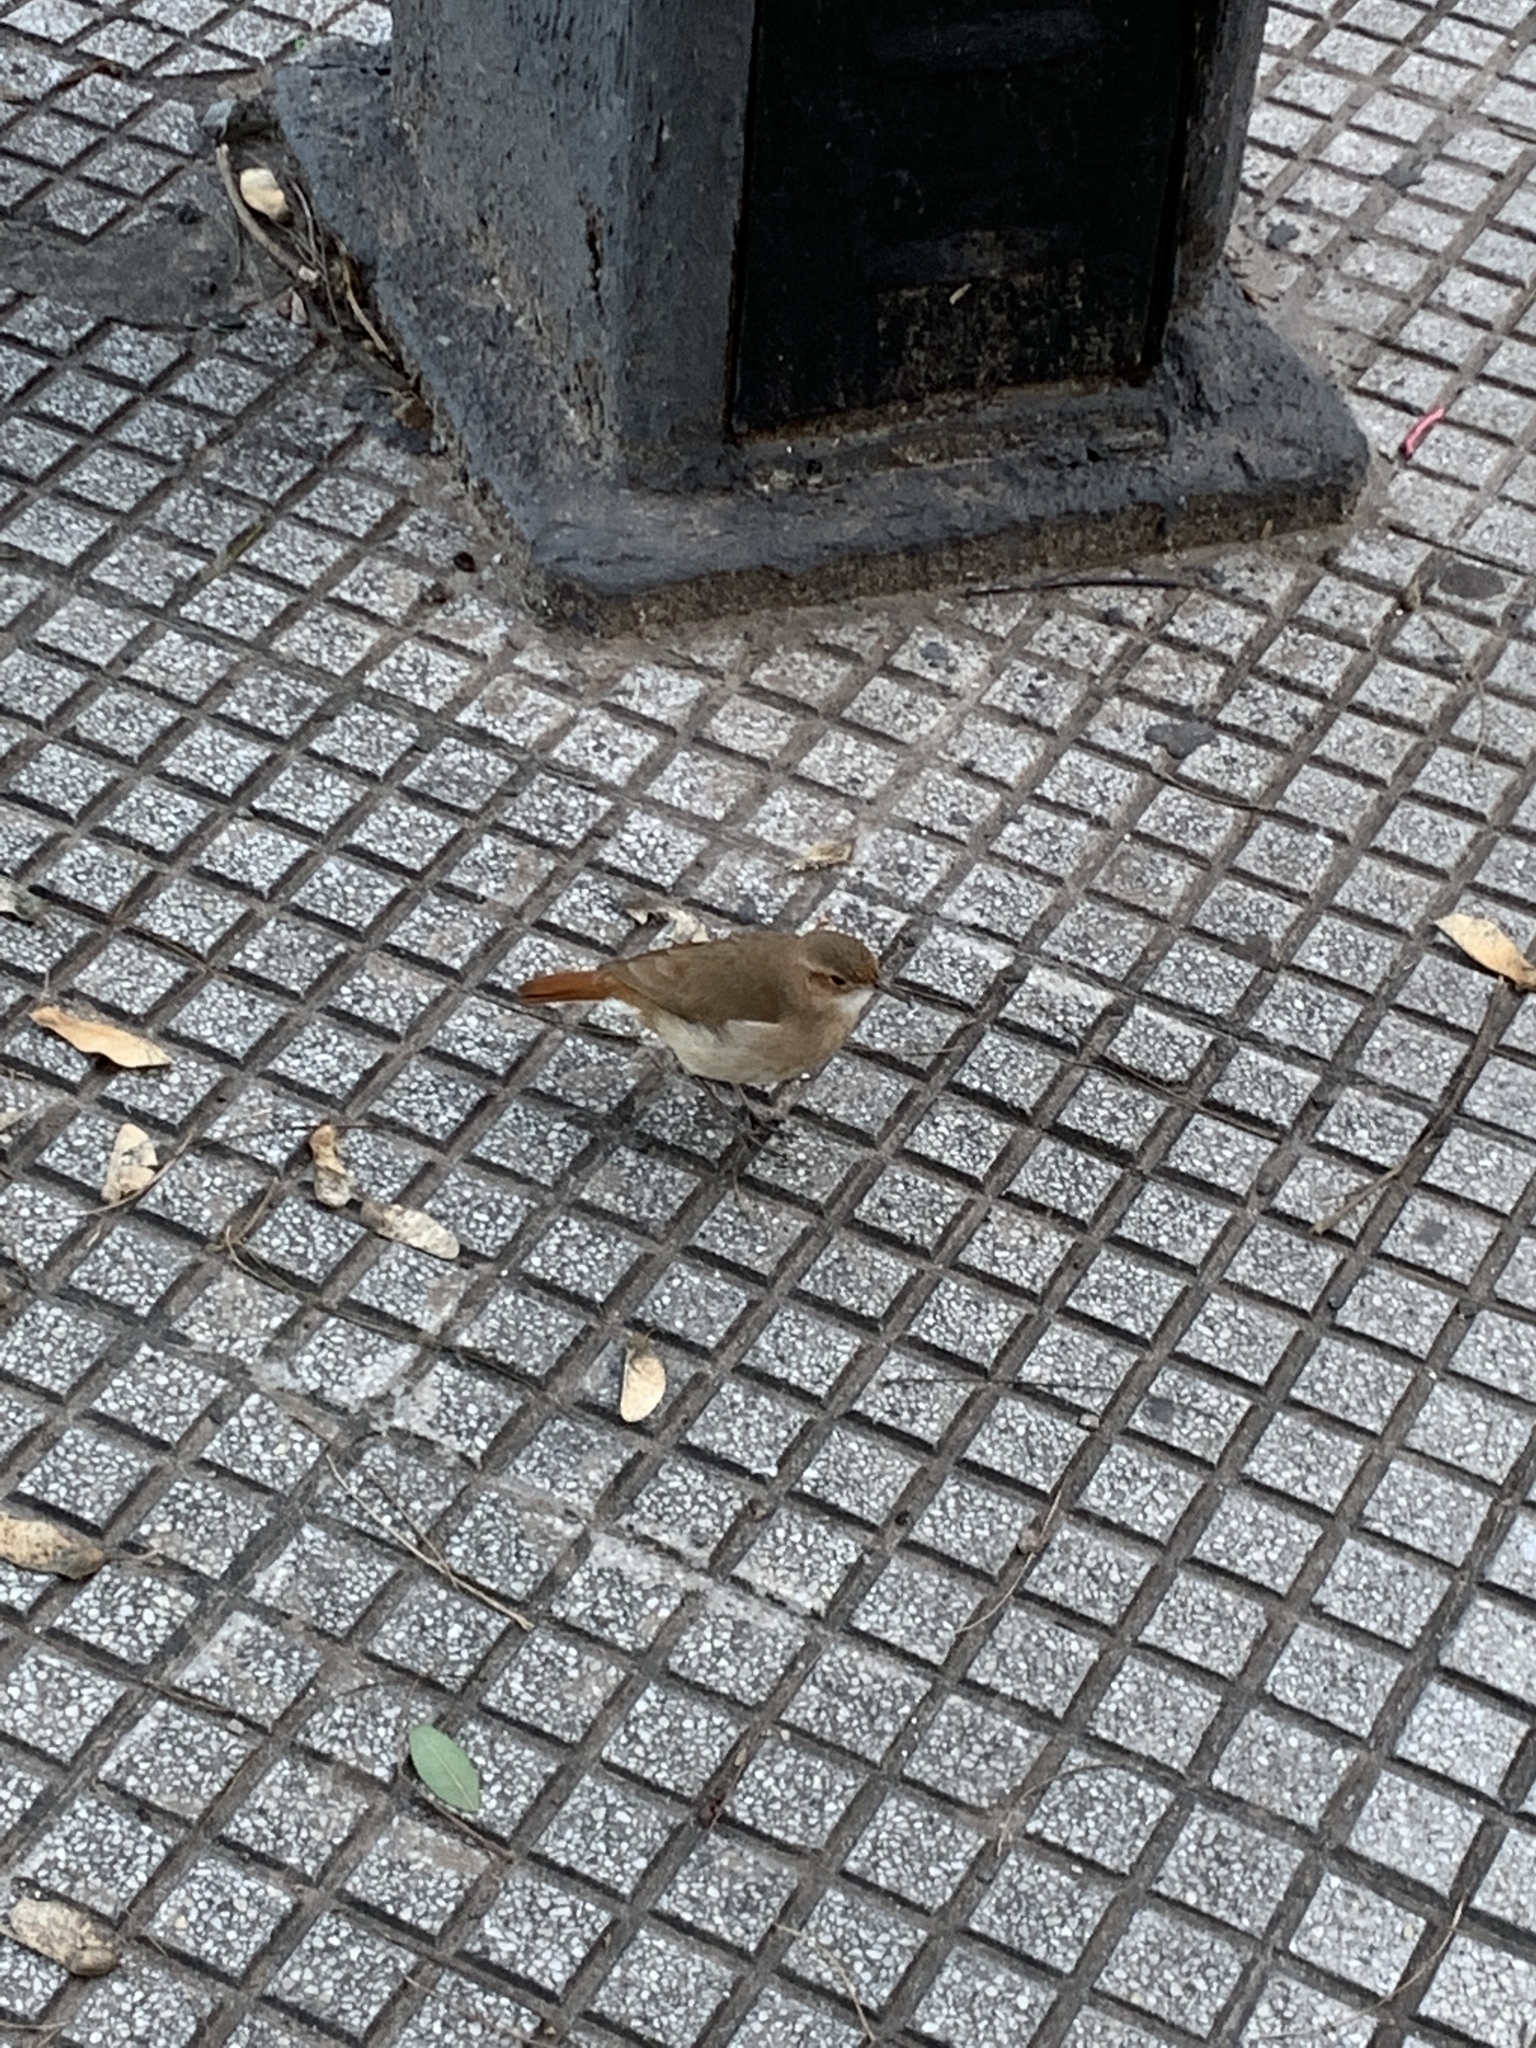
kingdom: Animalia
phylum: Chordata
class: Aves
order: Passeriformes
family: Furnariidae
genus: Furnarius
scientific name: Furnarius rufus
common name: Rufous hornero
